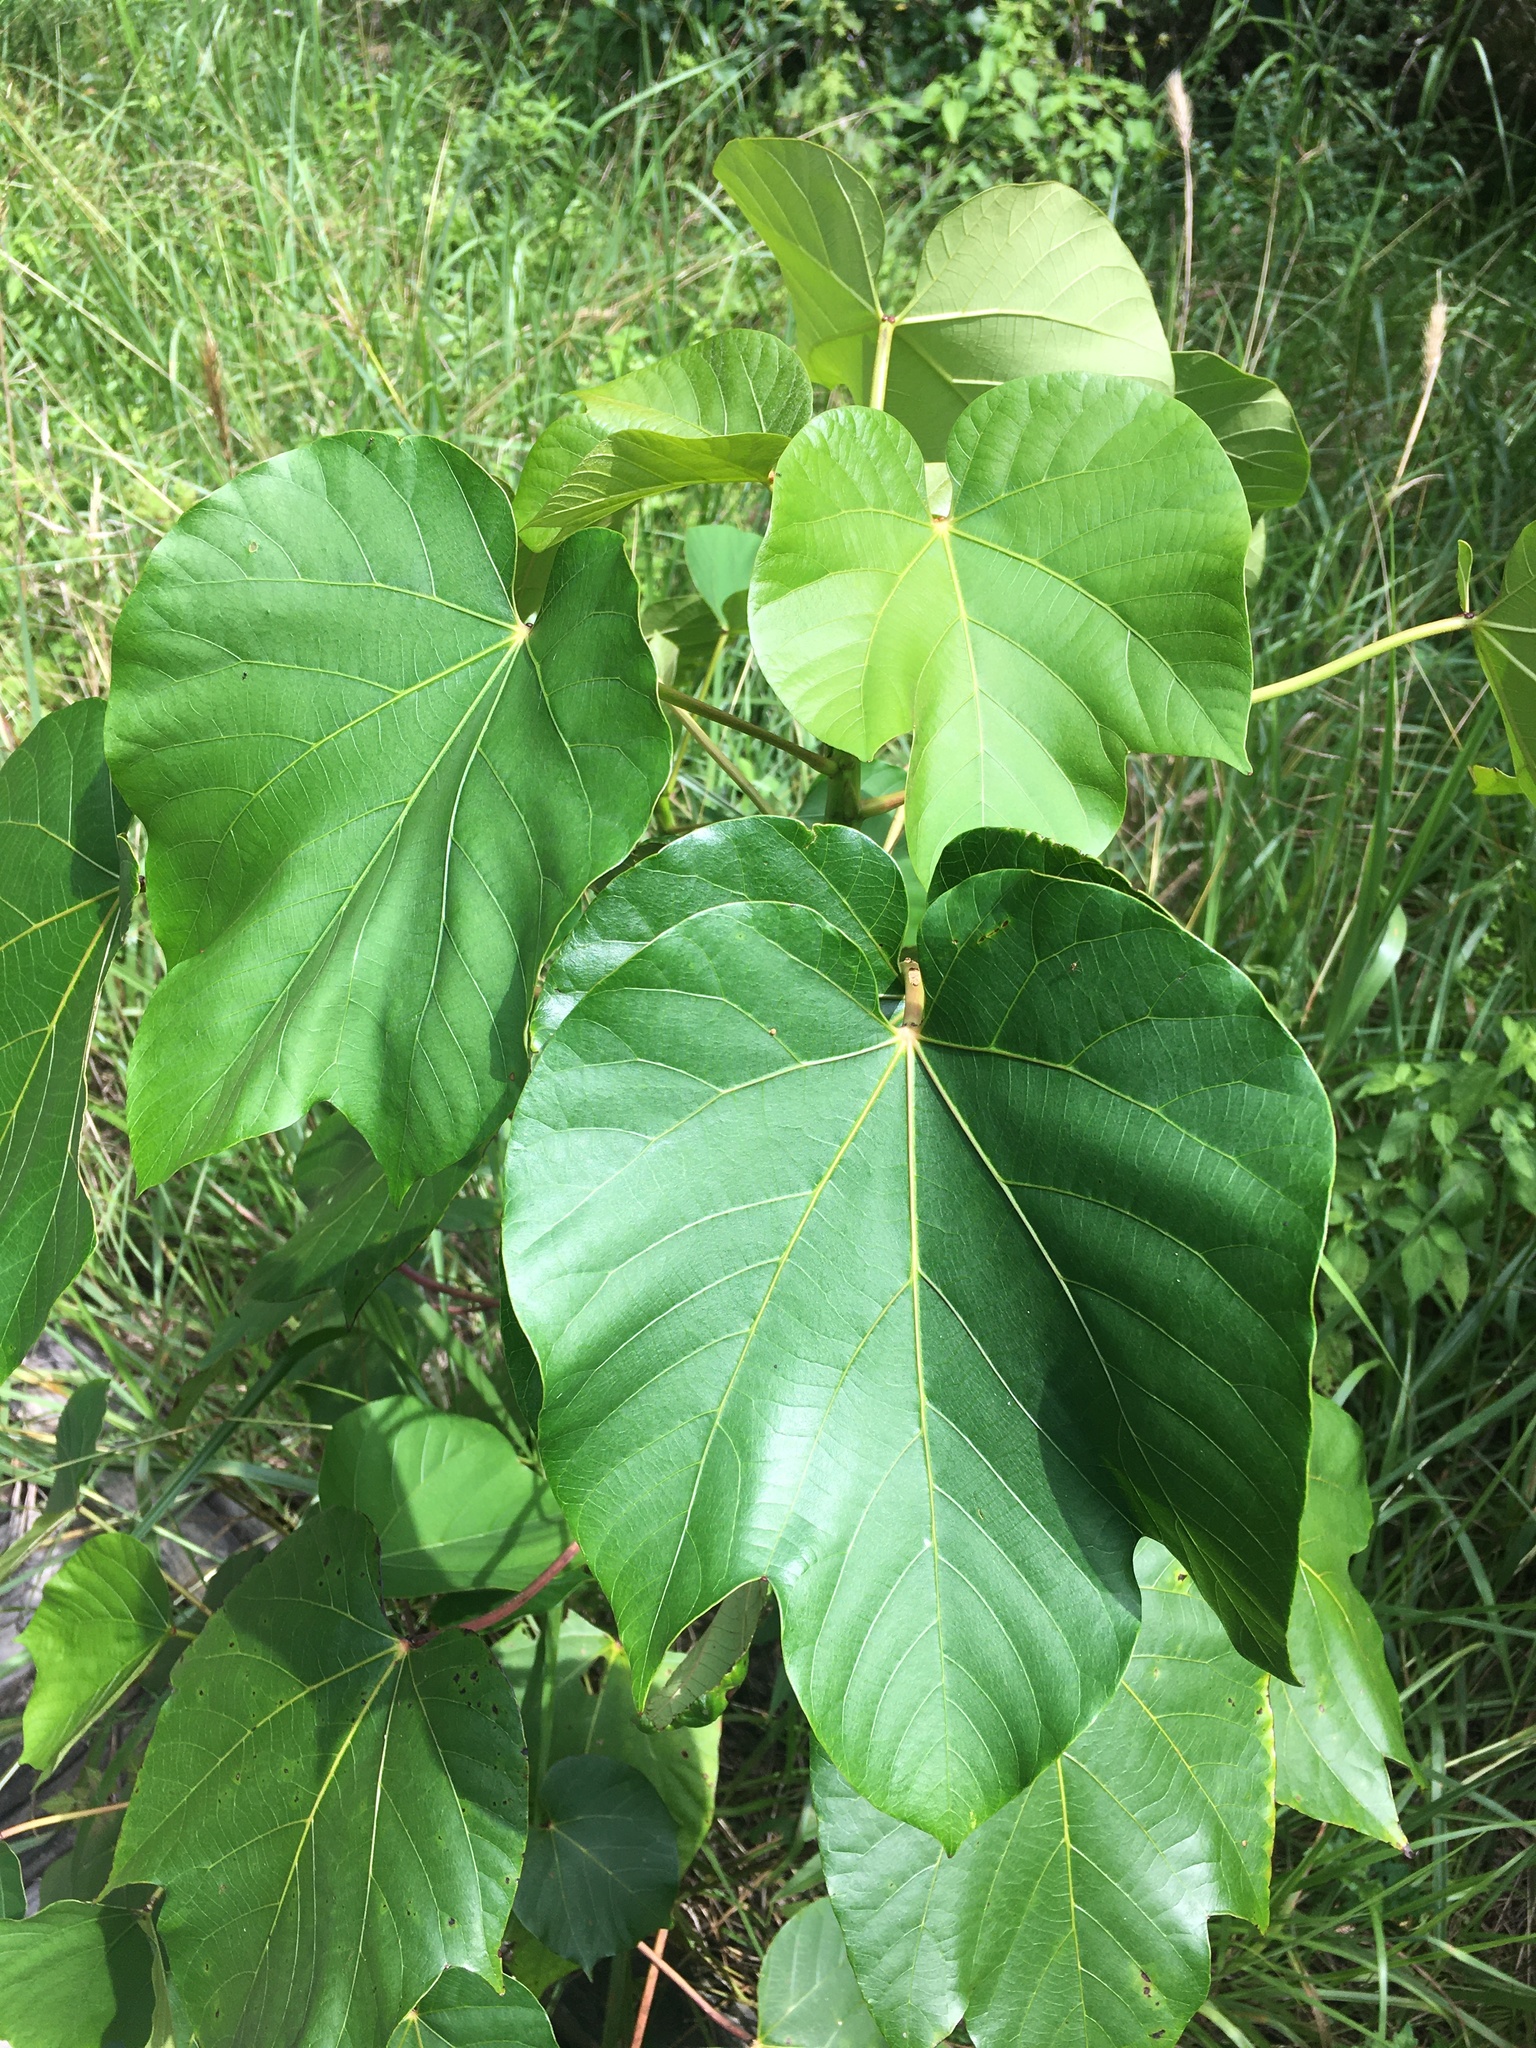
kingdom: Plantae
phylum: Tracheophyta
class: Magnoliopsida
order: Malpighiales
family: Euphorbiaceae
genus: Vernicia
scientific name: Vernicia fordii
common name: Tungoil tree
